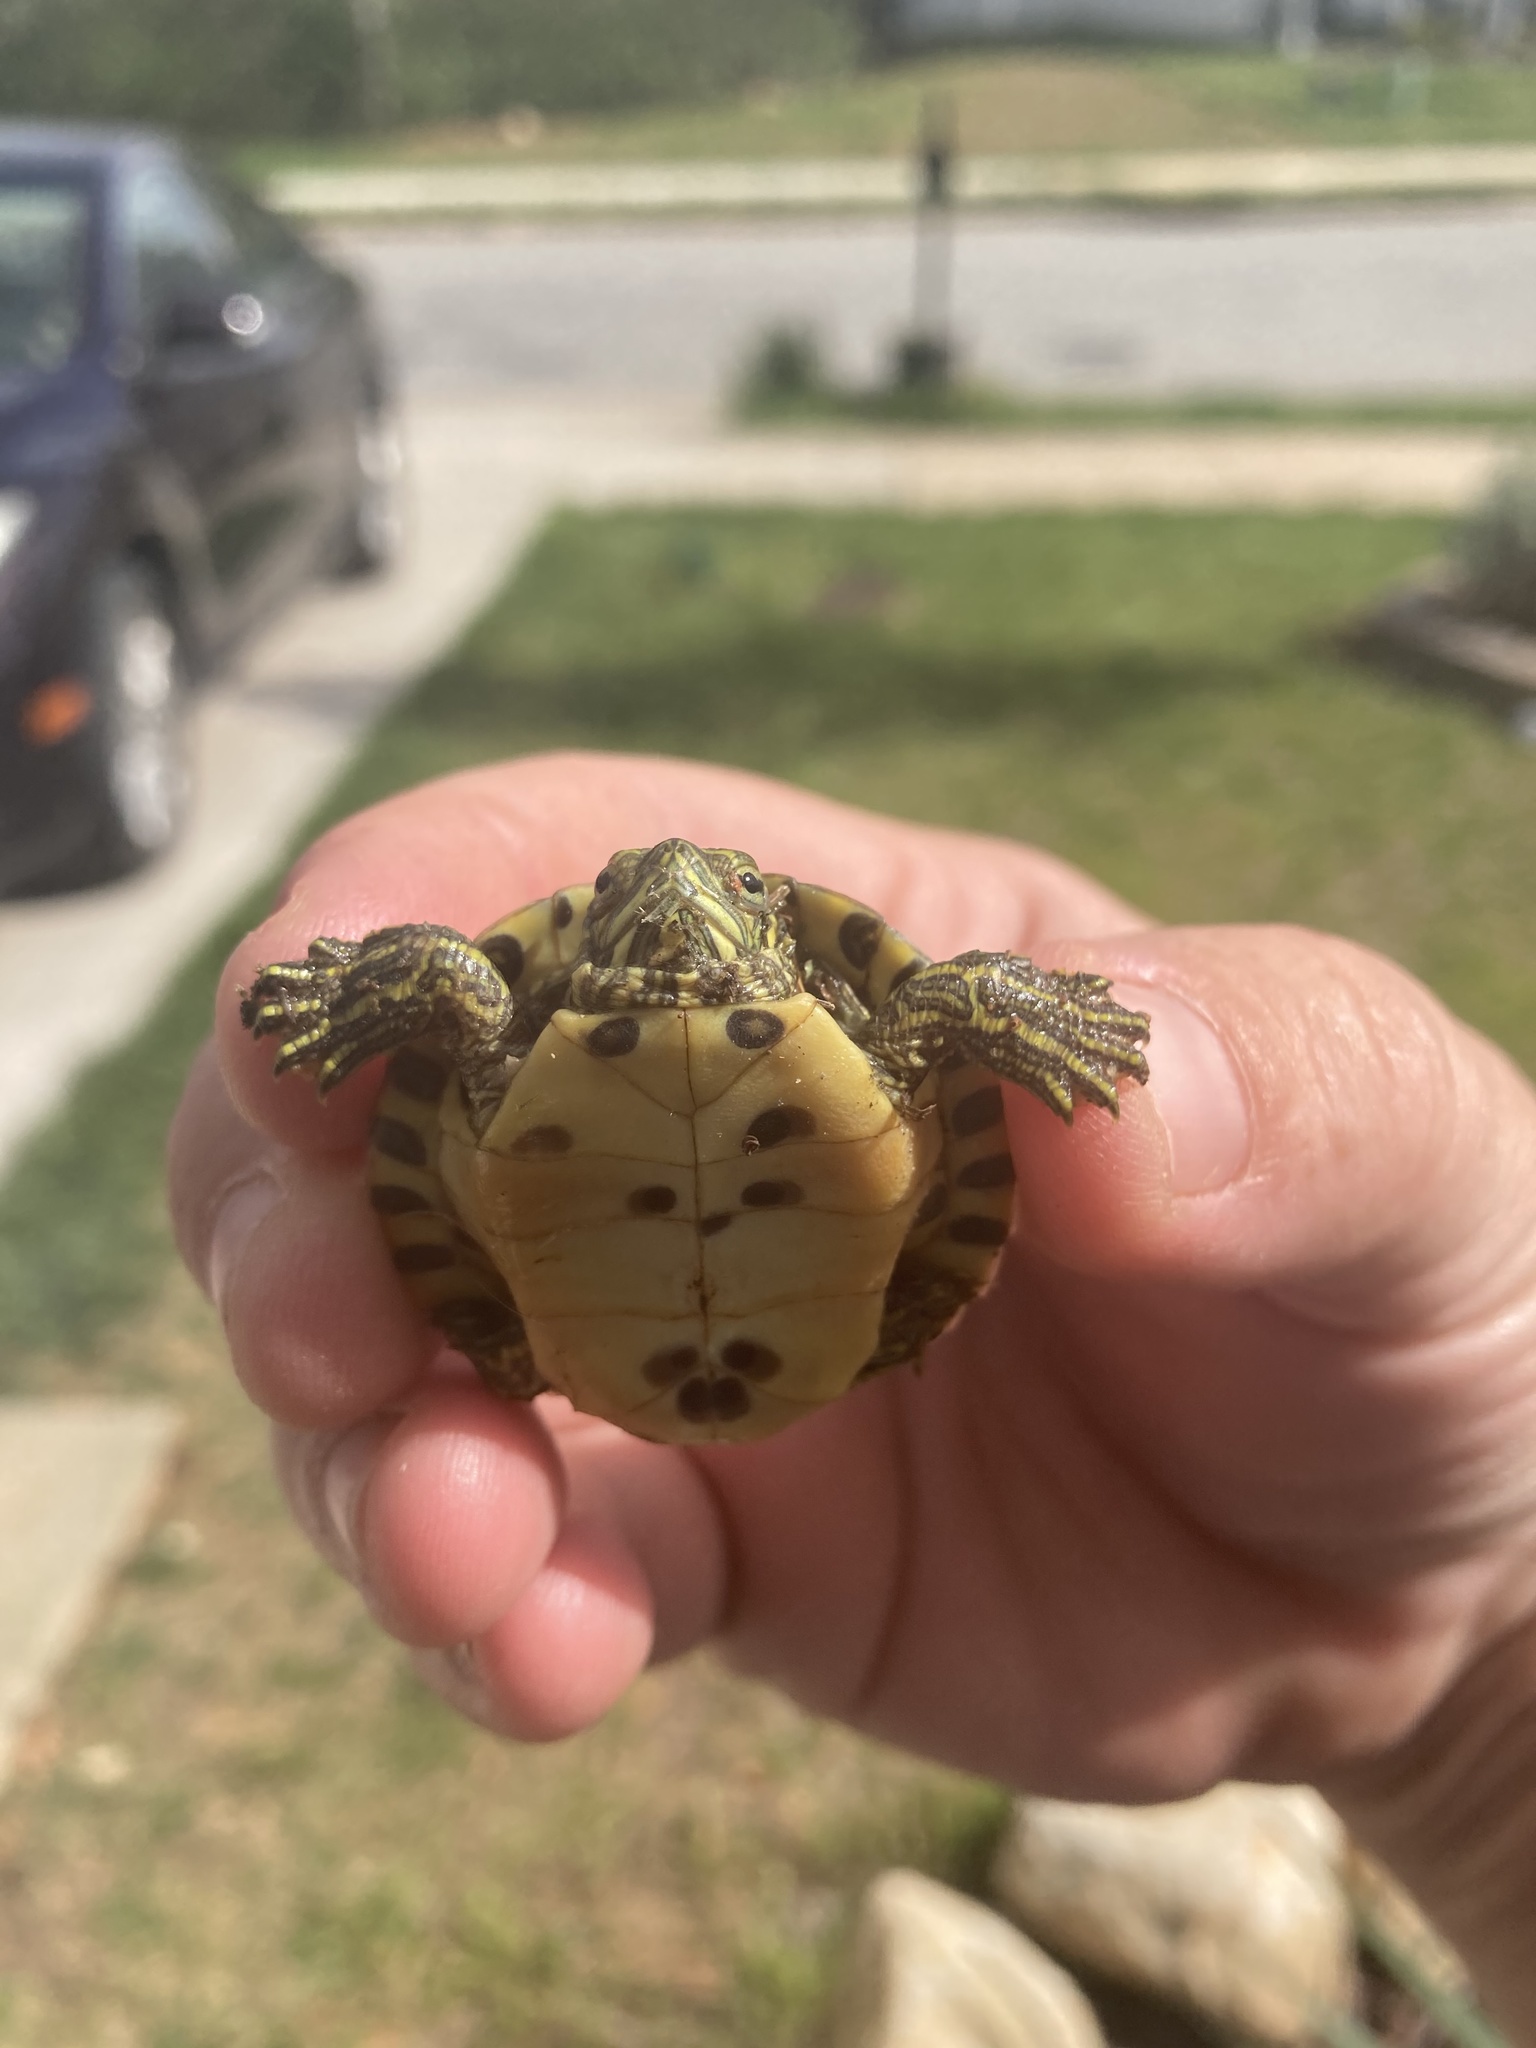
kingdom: Animalia
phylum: Chordata
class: Testudines
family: Emydidae
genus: Trachemys
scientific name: Trachemys scripta
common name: Slider
